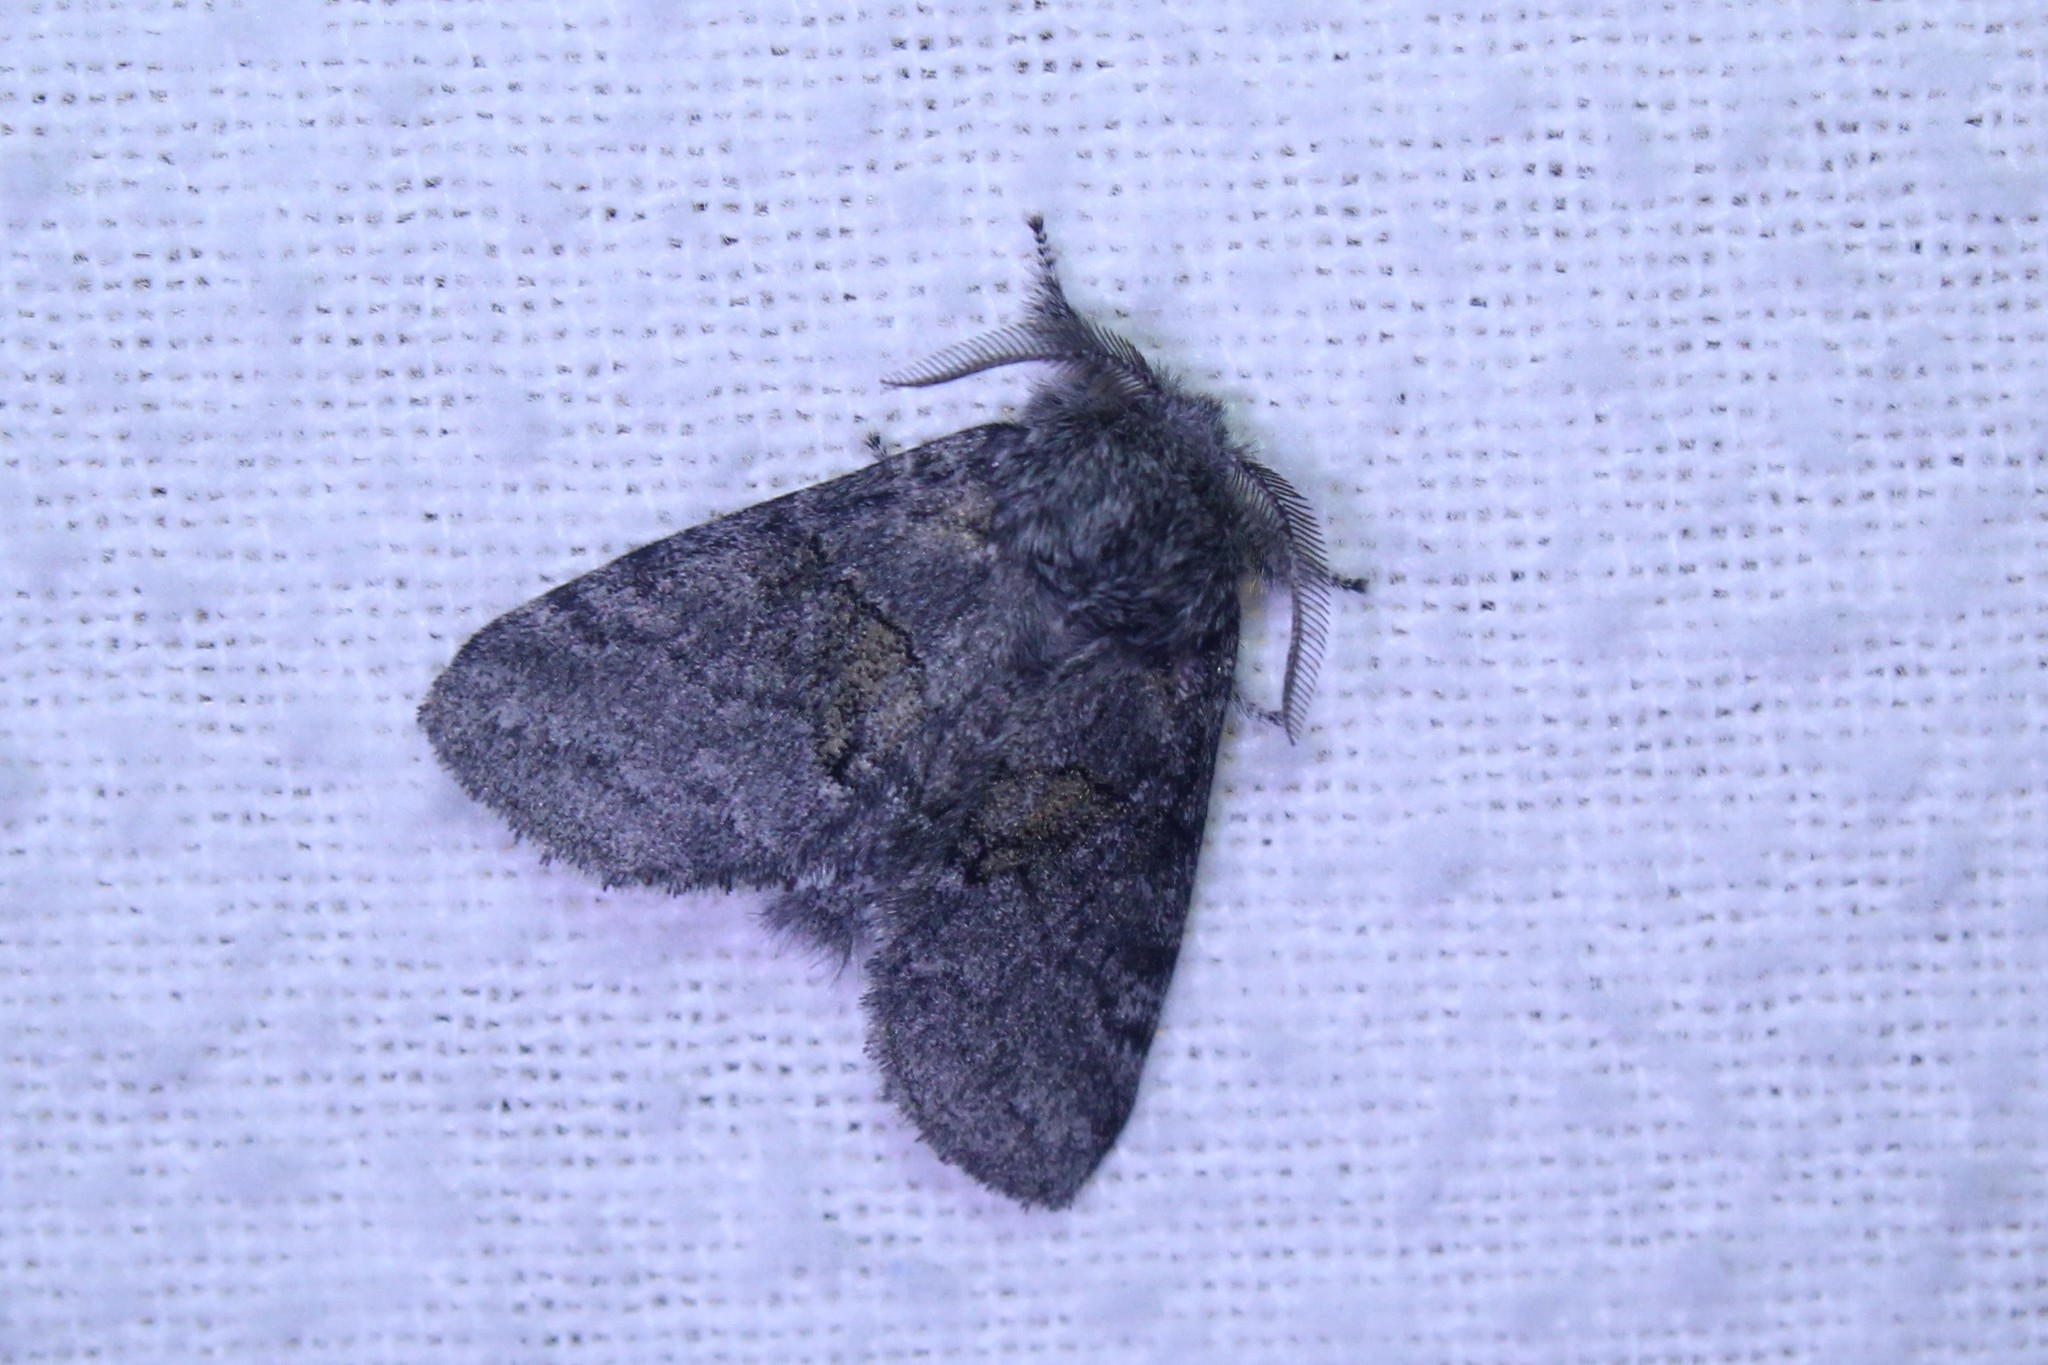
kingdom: Animalia
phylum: Arthropoda
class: Insecta
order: Lepidoptera
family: Notodontidae
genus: Gluphisia
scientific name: Gluphisia septentrionis
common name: Common gluphisia
